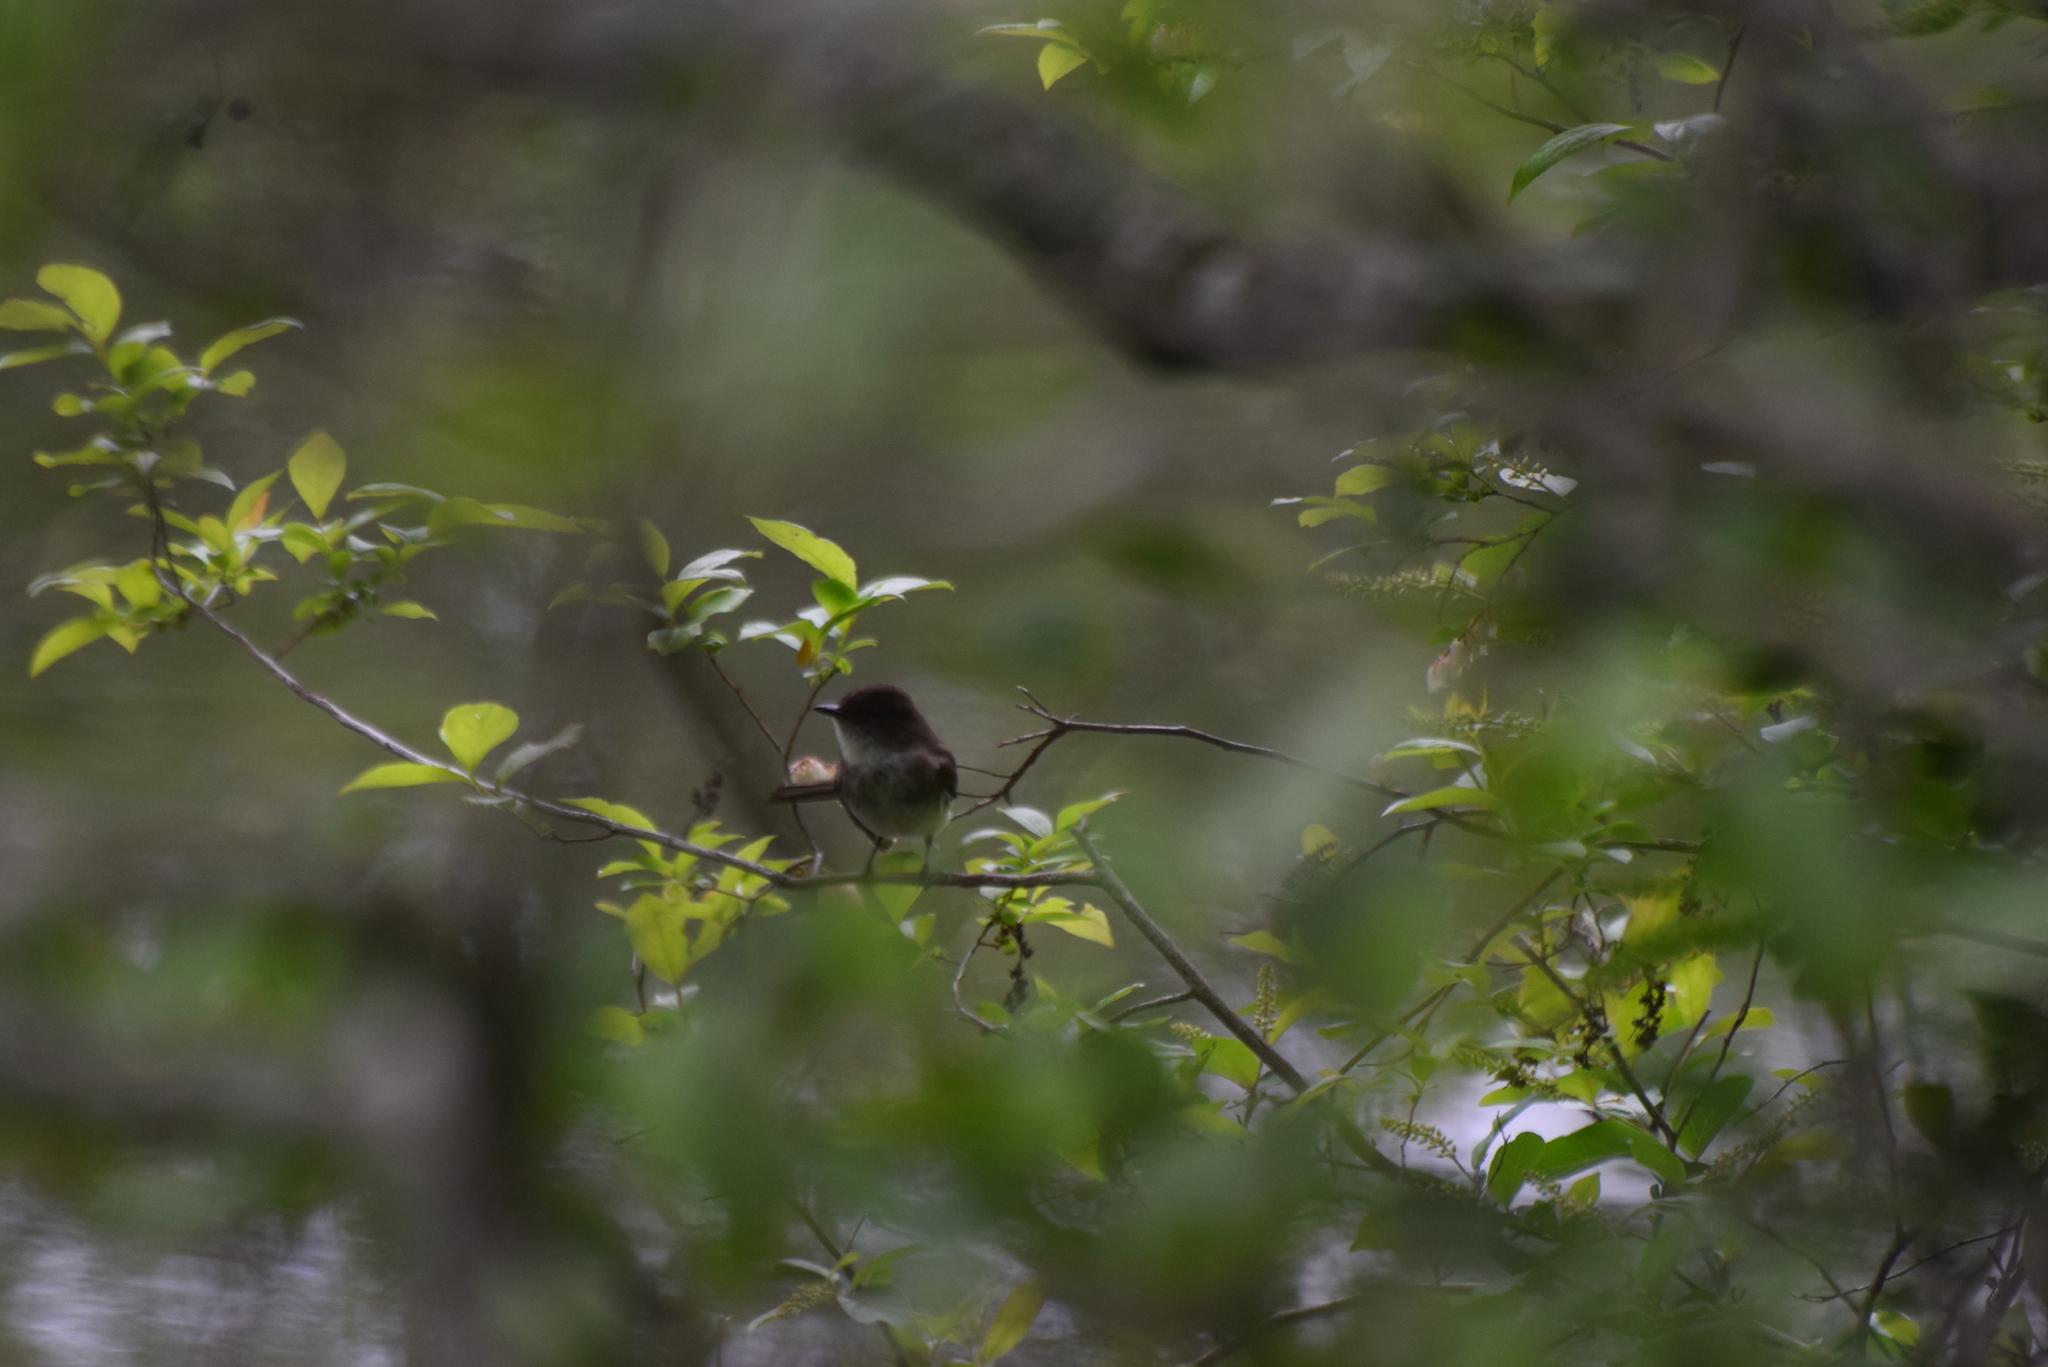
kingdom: Animalia
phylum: Chordata
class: Aves
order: Passeriformes
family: Tyrannidae
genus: Sayornis
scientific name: Sayornis phoebe
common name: Eastern phoebe
